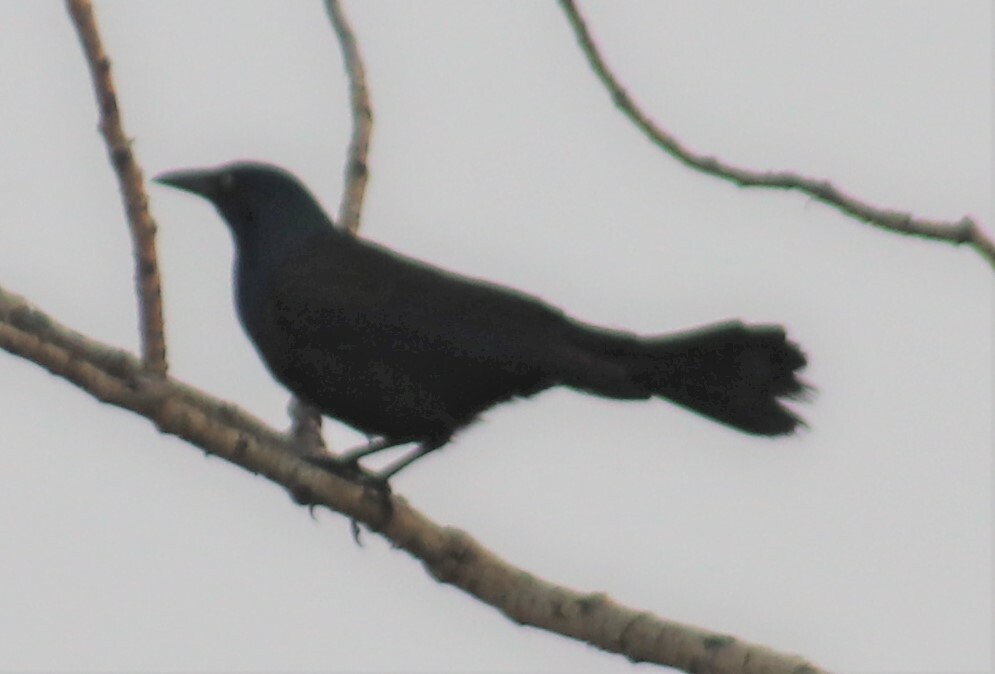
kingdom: Animalia
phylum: Chordata
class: Aves
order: Passeriformes
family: Icteridae
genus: Quiscalus
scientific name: Quiscalus quiscula
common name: Common grackle
